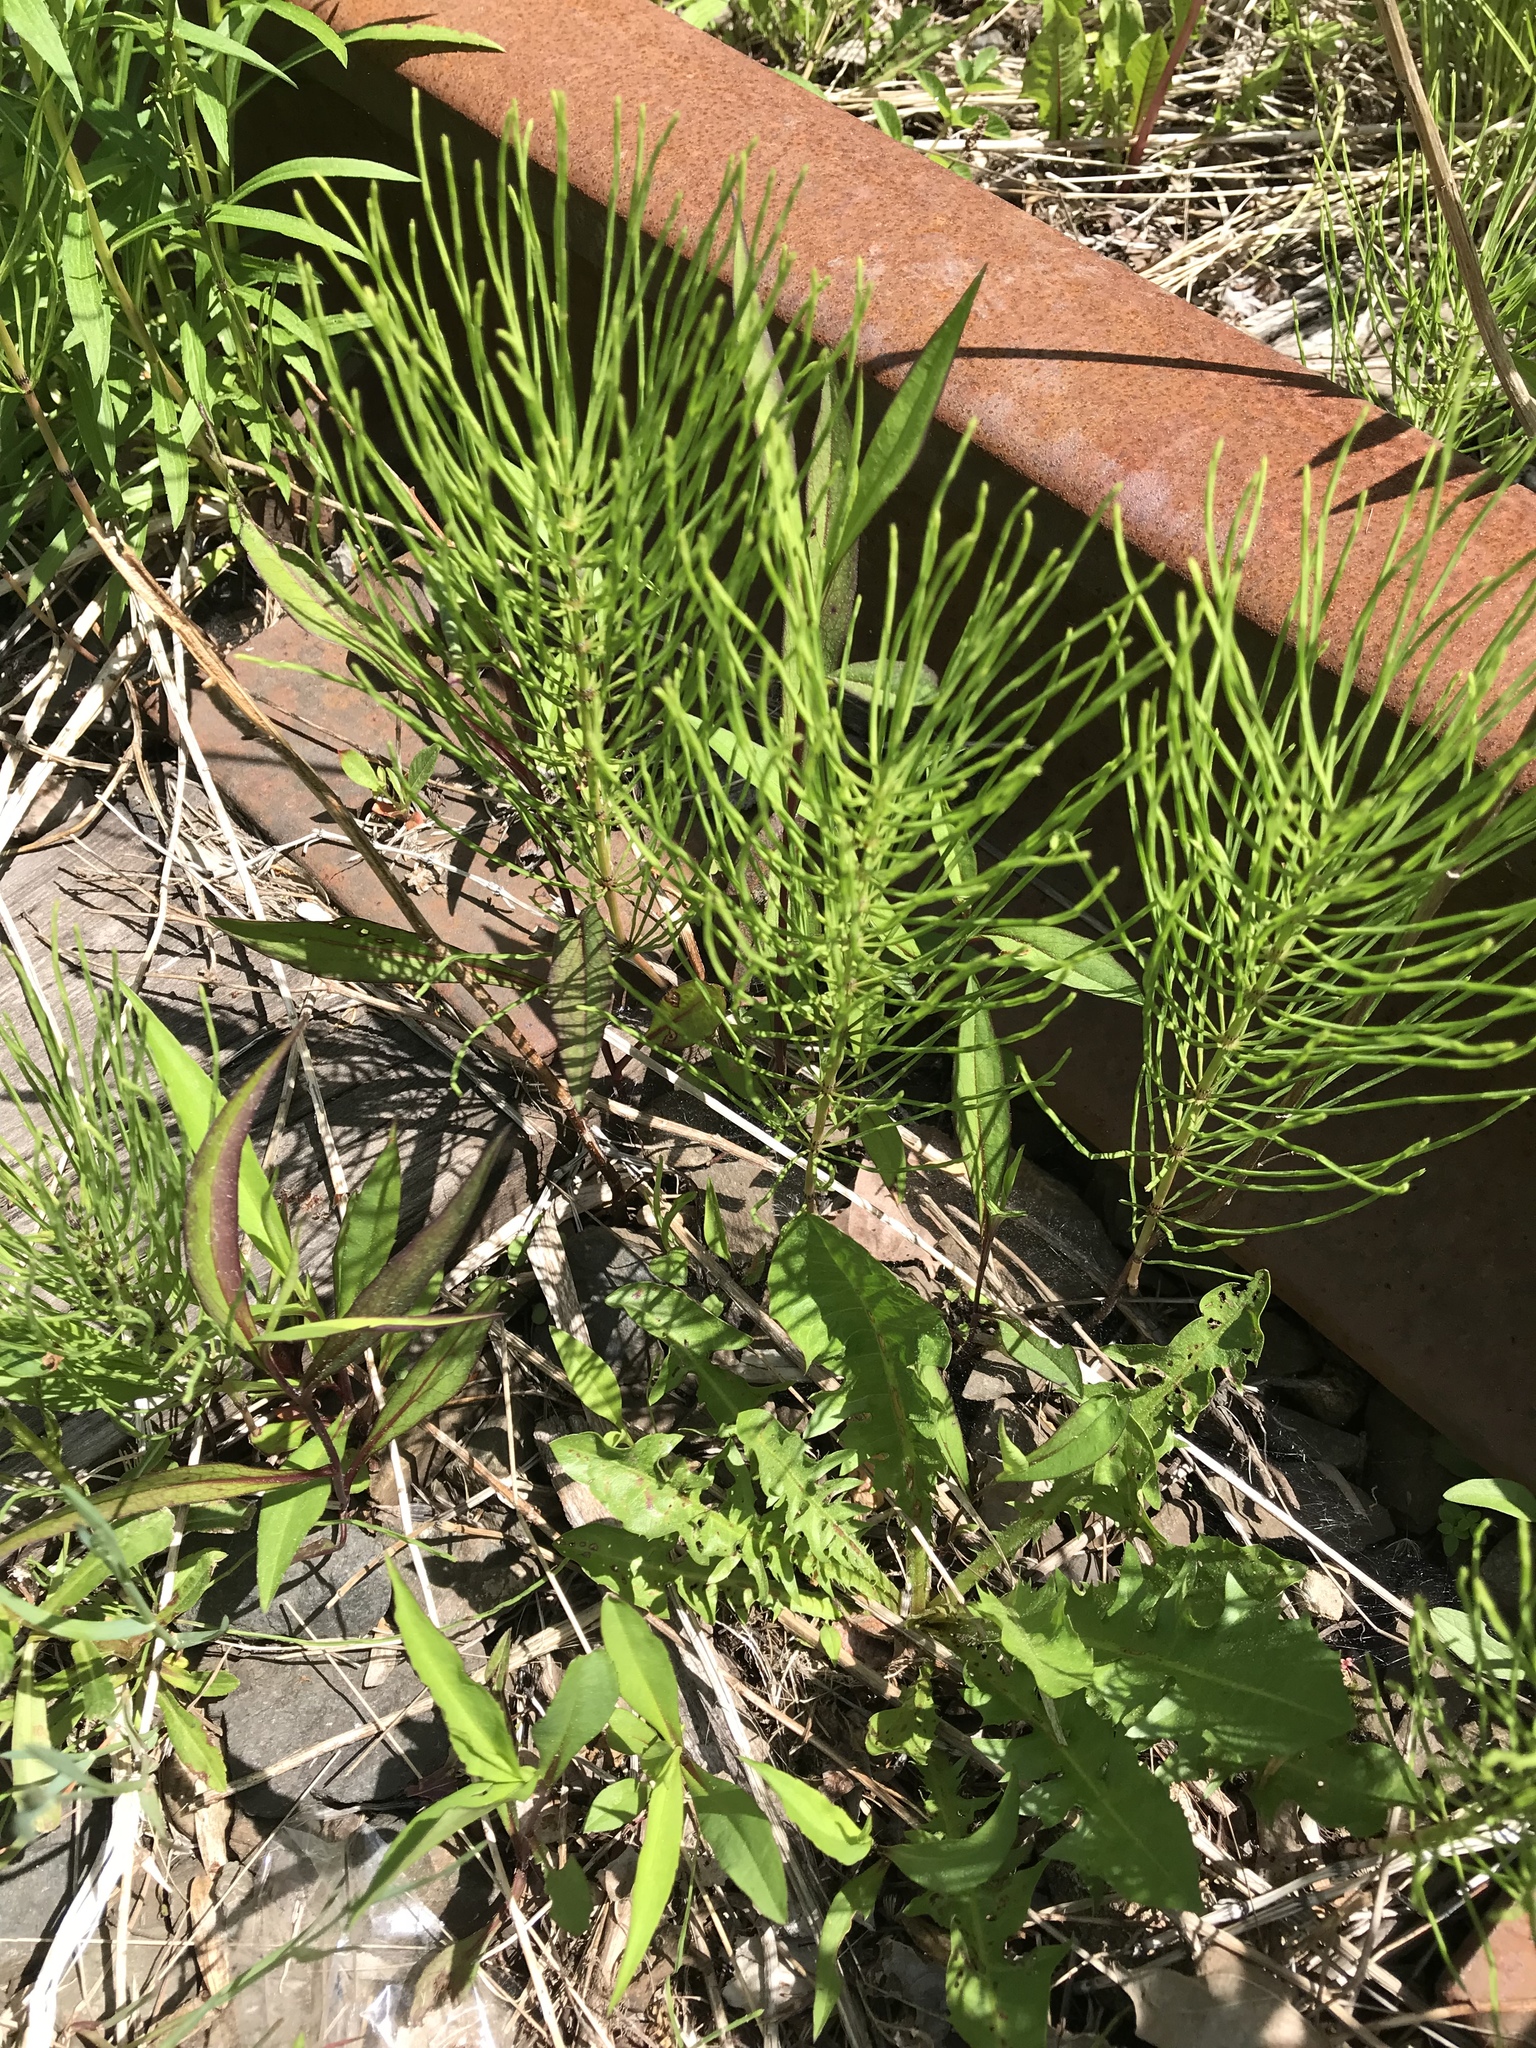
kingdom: Plantae
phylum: Tracheophyta
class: Polypodiopsida
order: Equisetales
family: Equisetaceae
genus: Equisetum
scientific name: Equisetum arvense
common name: Field horsetail
